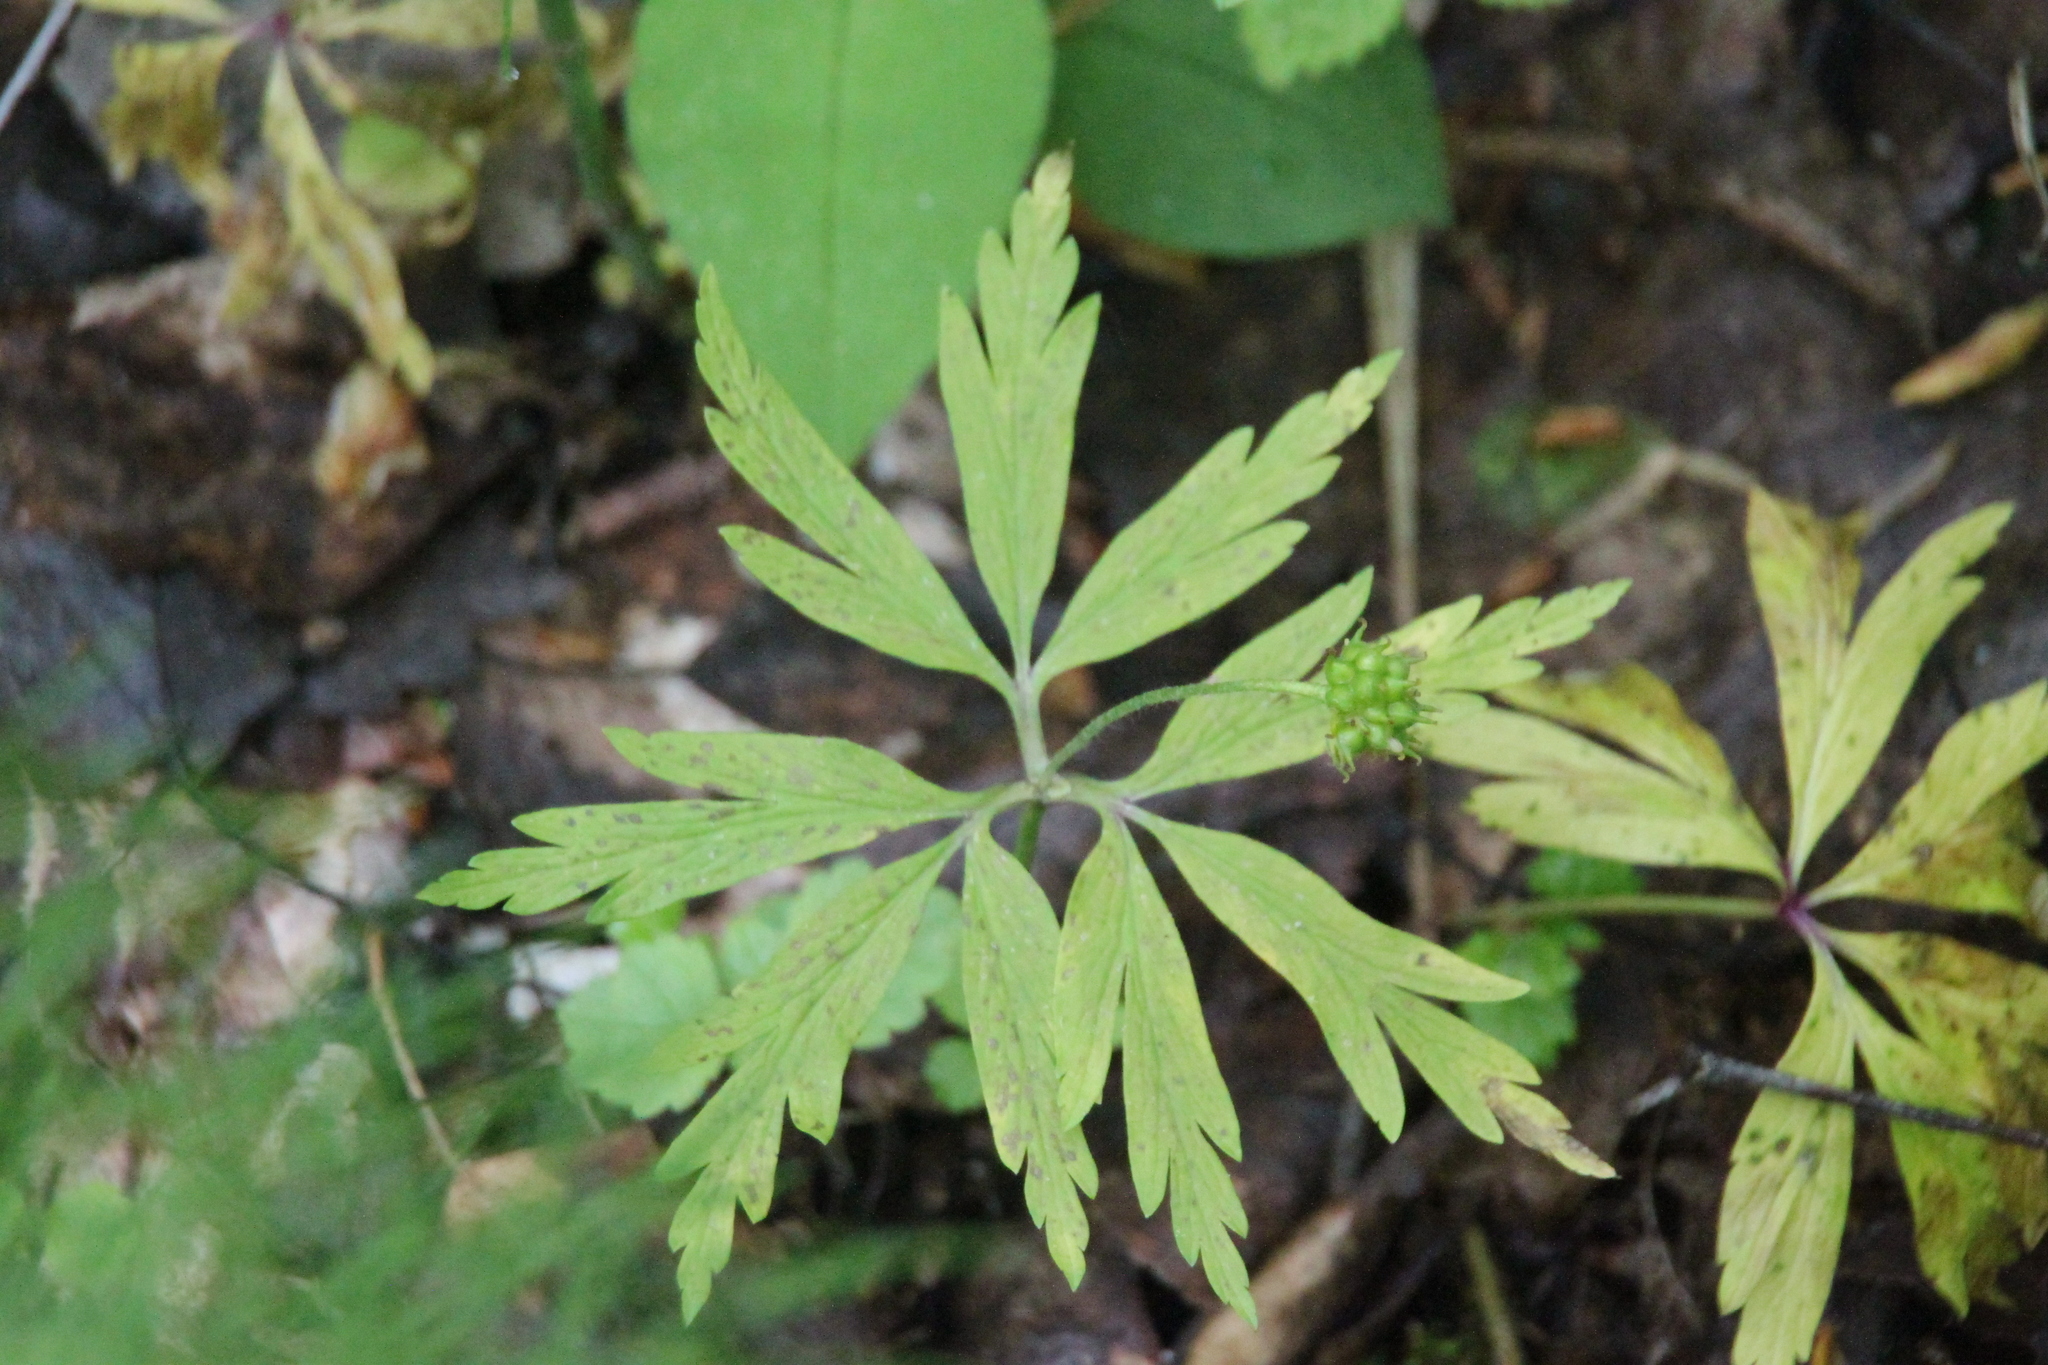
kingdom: Plantae
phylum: Tracheophyta
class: Magnoliopsida
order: Ranunculales
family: Ranunculaceae
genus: Anemone
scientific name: Anemone ranunculoides
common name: Yellow anemone
